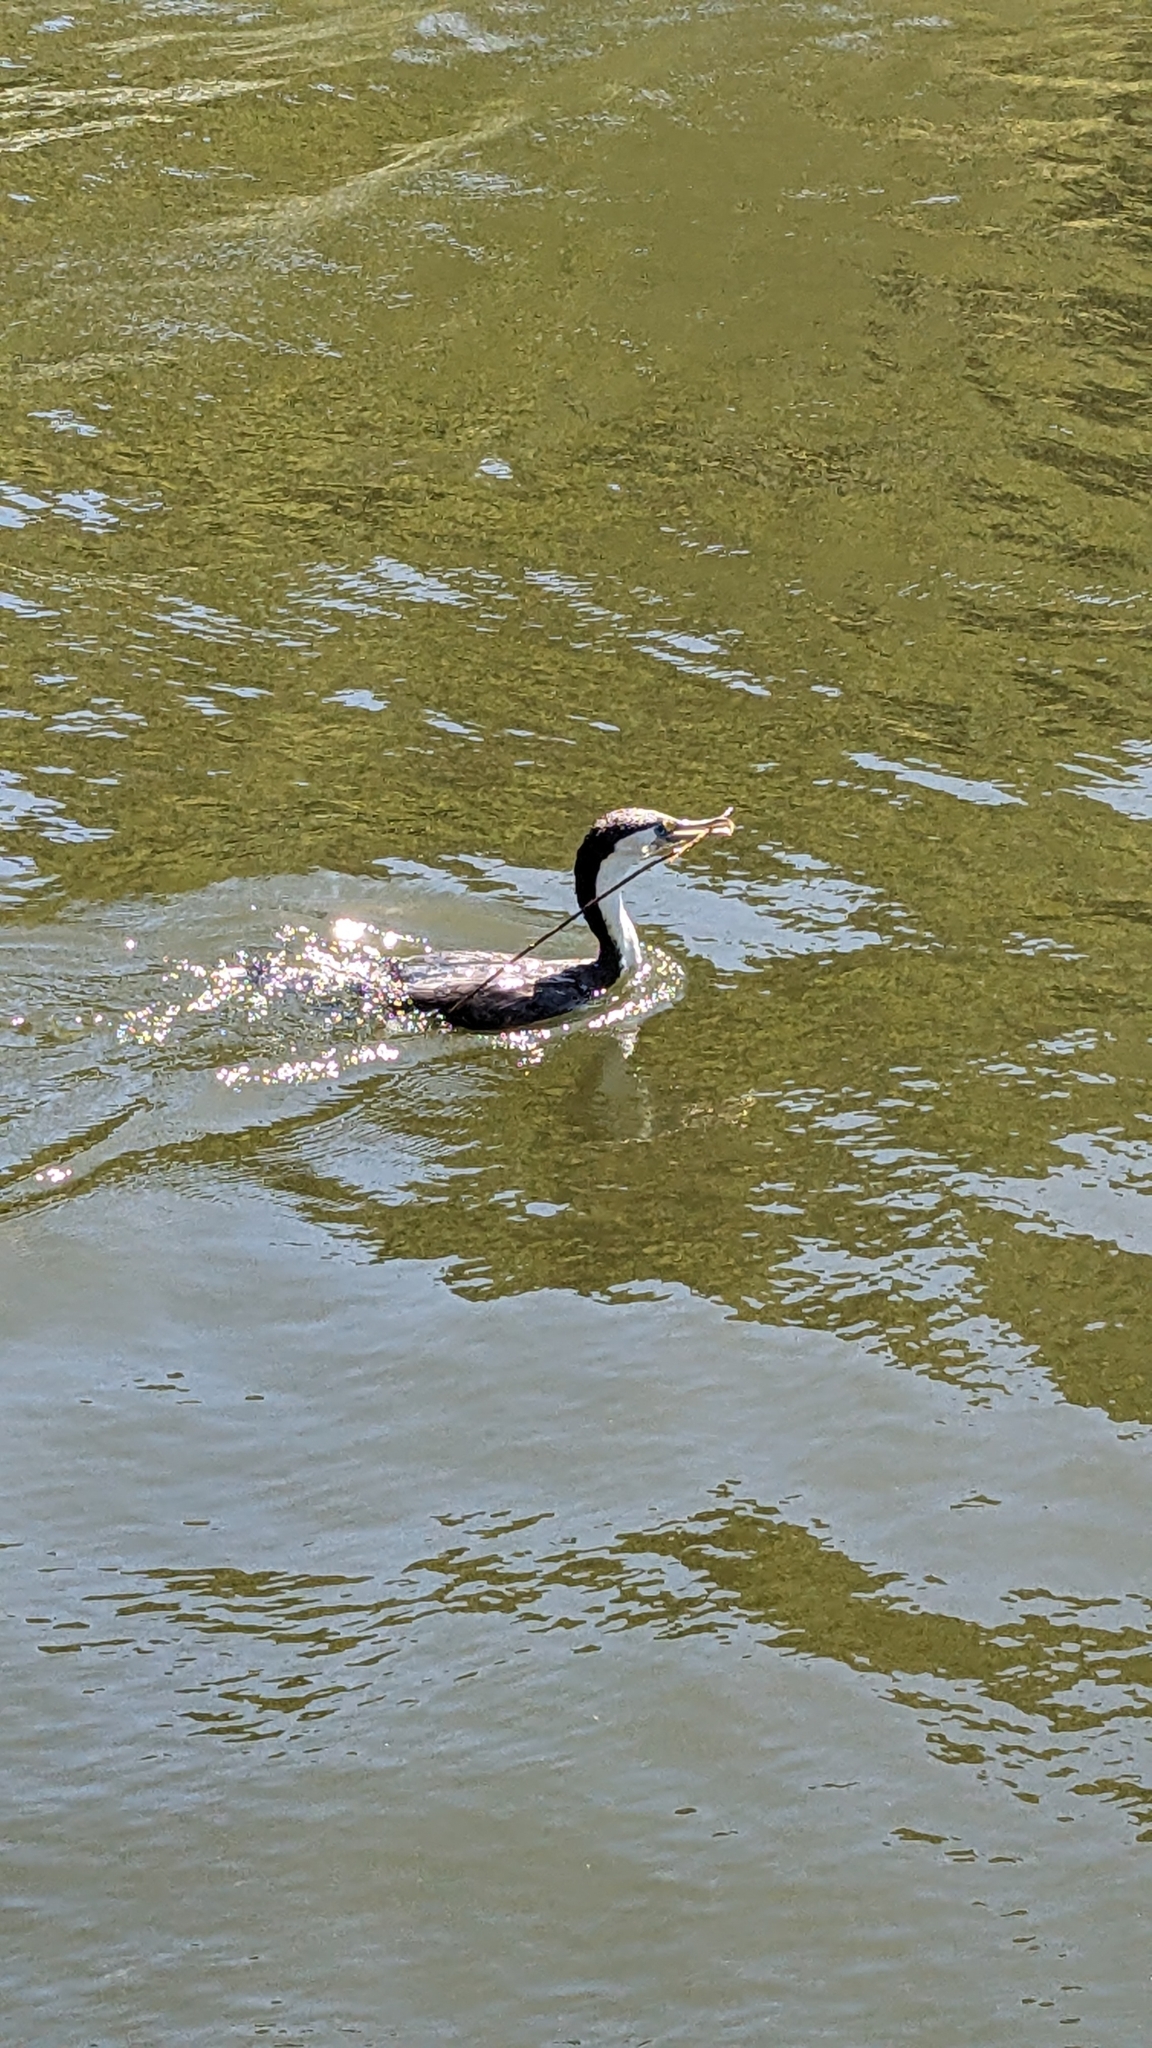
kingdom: Animalia
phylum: Chordata
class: Aves
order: Suliformes
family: Phalacrocoracidae
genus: Phalacrocorax
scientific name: Phalacrocorax varius
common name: Pied cormorant
